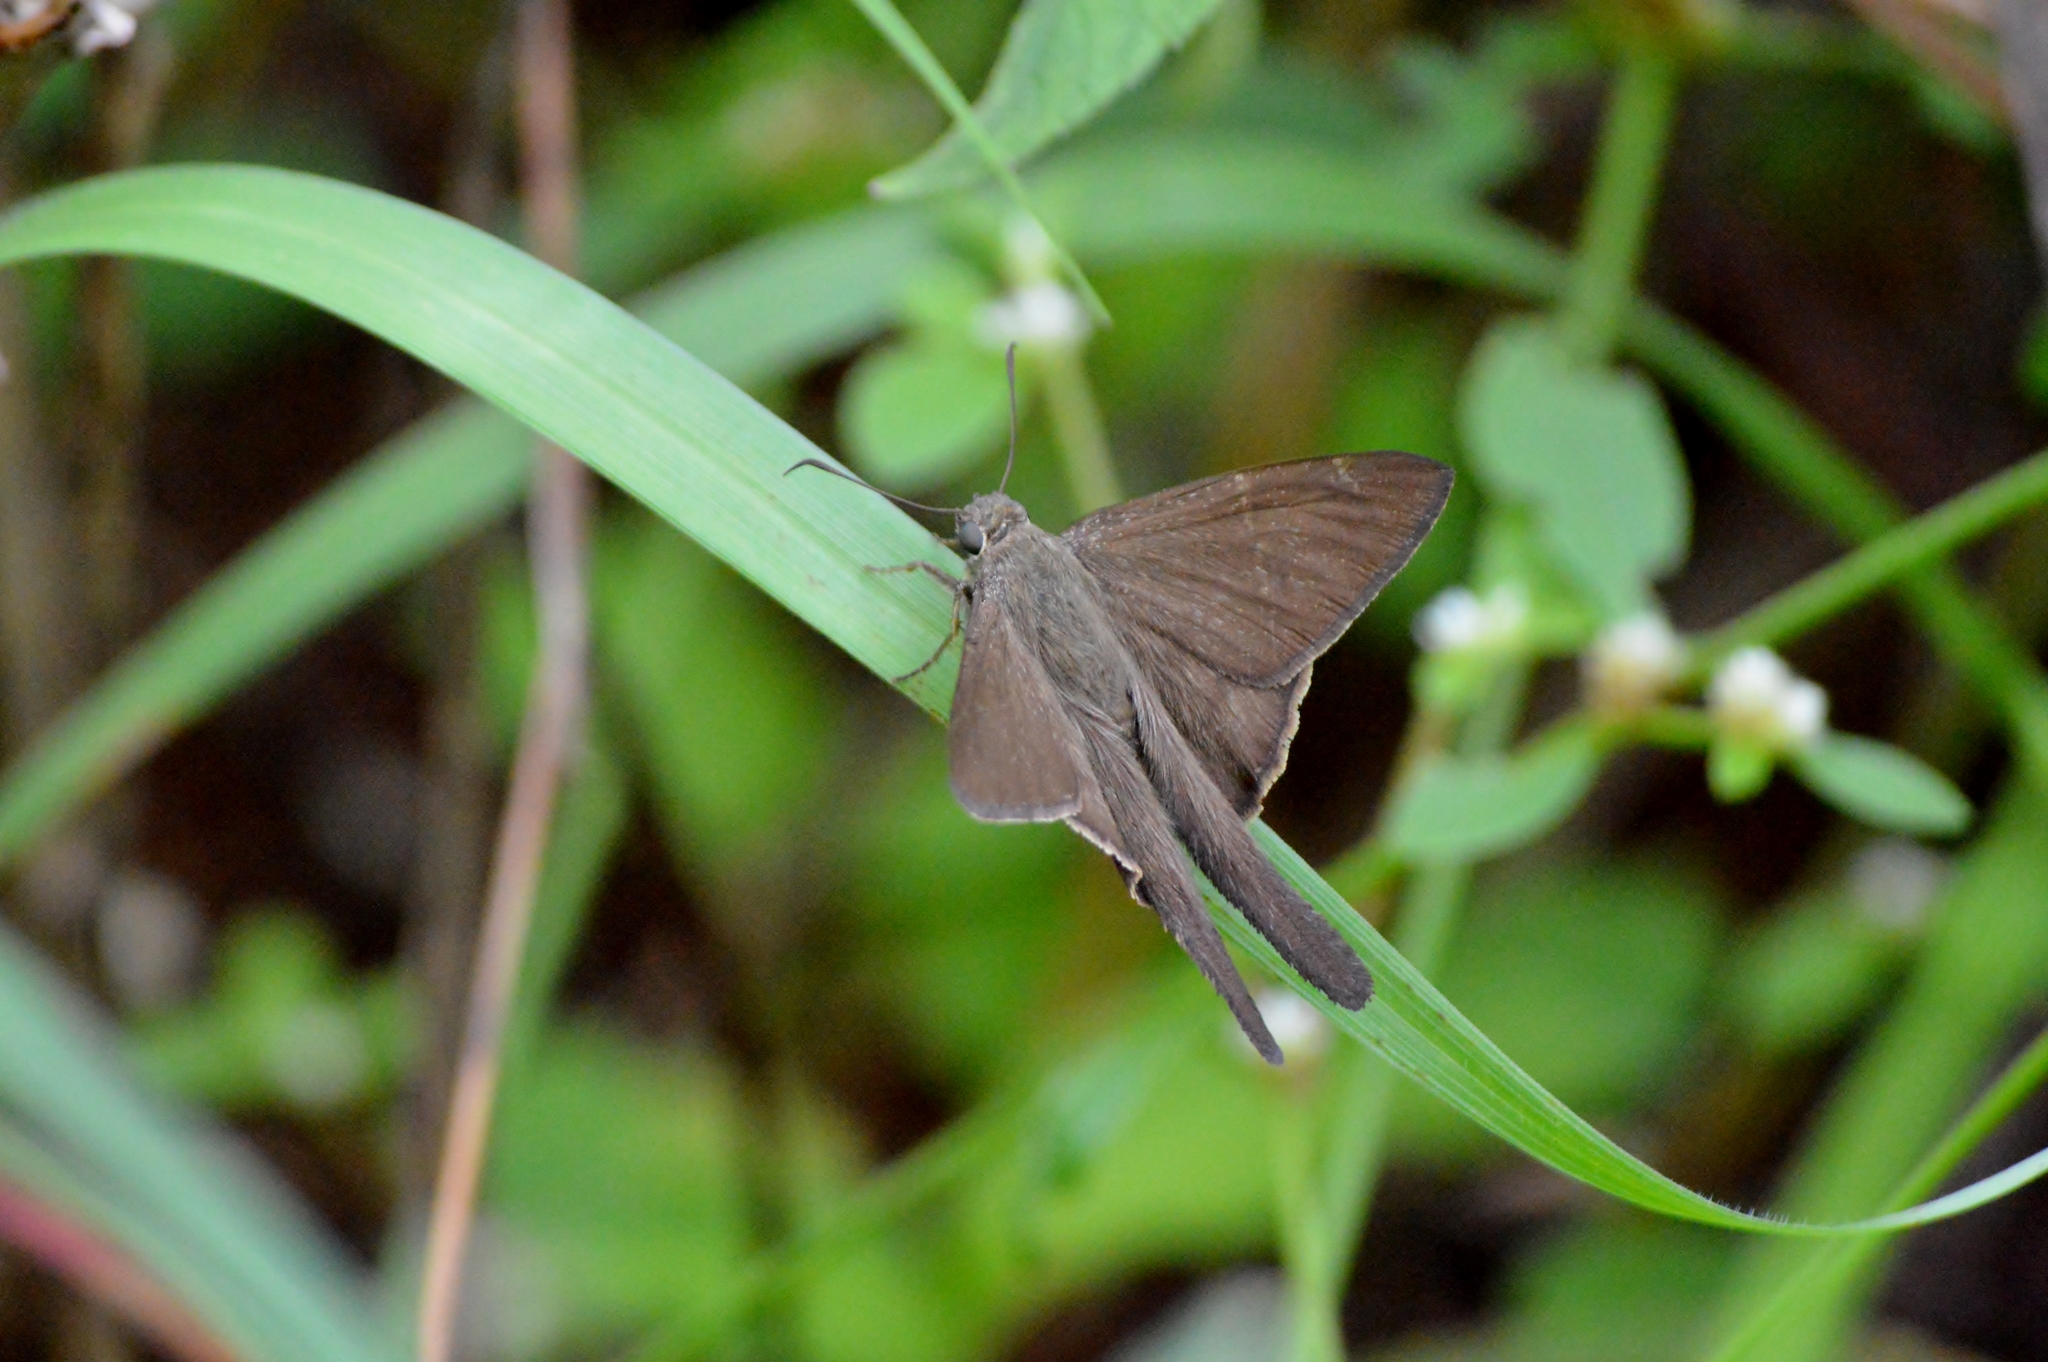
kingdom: Animalia
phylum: Arthropoda
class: Insecta
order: Lepidoptera
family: Hesperiidae
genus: Urbanus
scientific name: Urbanus teleus
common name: Teleus longtail
